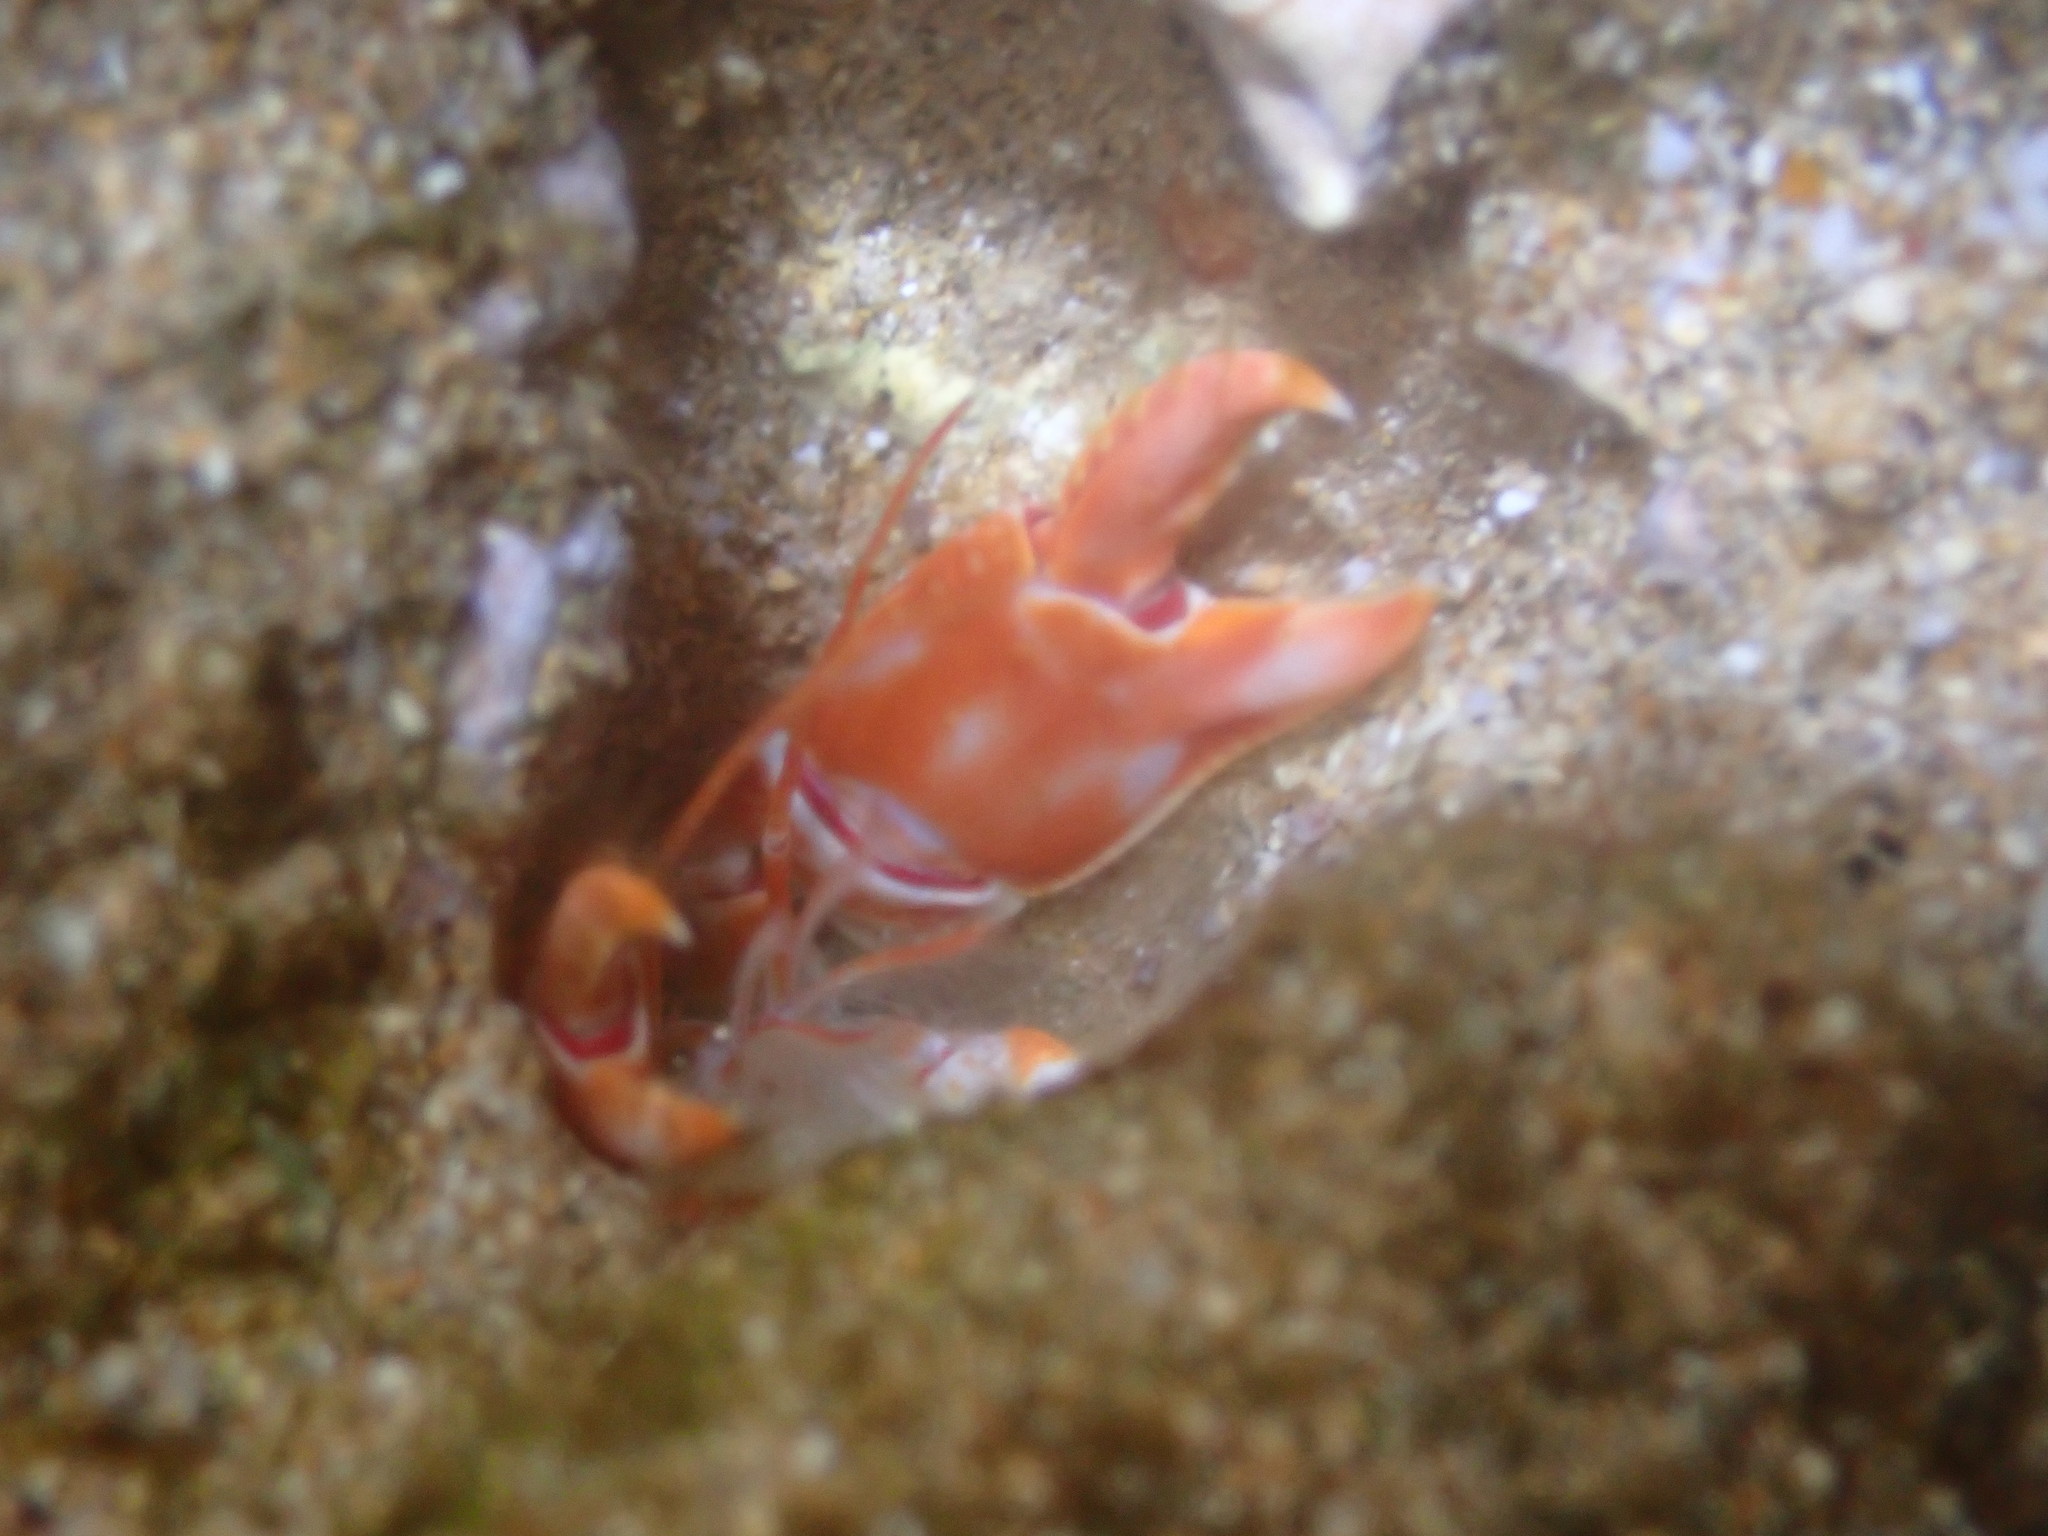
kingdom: Animalia
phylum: Arthropoda
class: Malacostraca
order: Decapoda
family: Callichiridae
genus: Corallianassa
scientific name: Corallianassa borradailei
